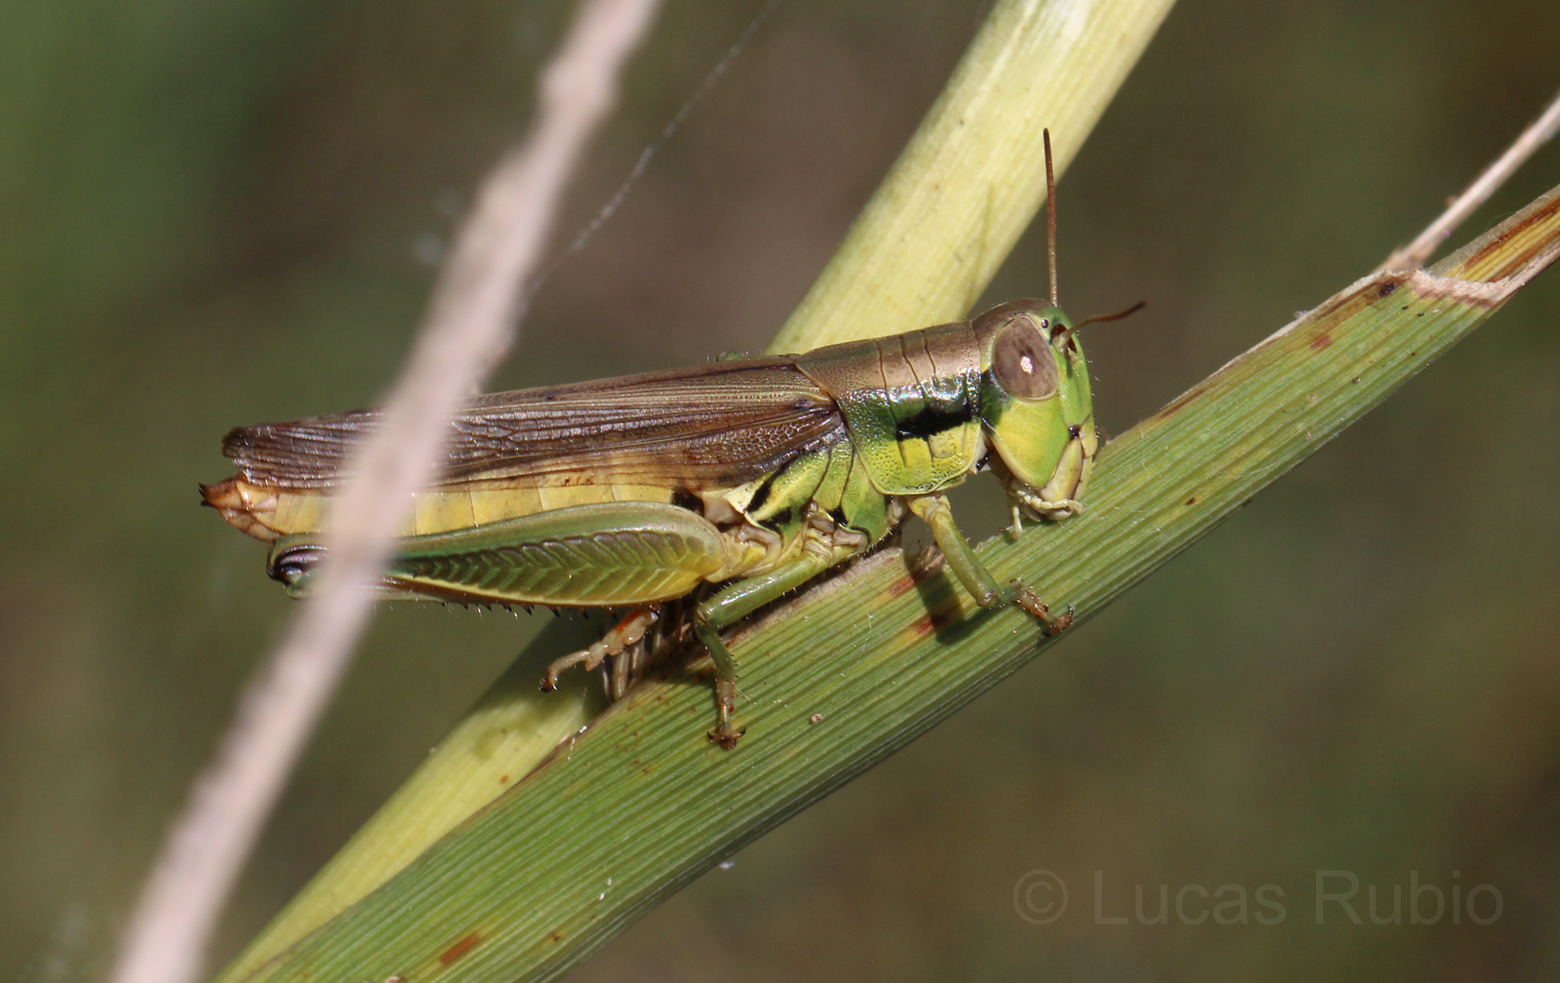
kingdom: Animalia
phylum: Arthropoda
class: Insecta
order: Orthoptera
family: Acrididae
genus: Leiotettix
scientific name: Leiotettix pulcher
